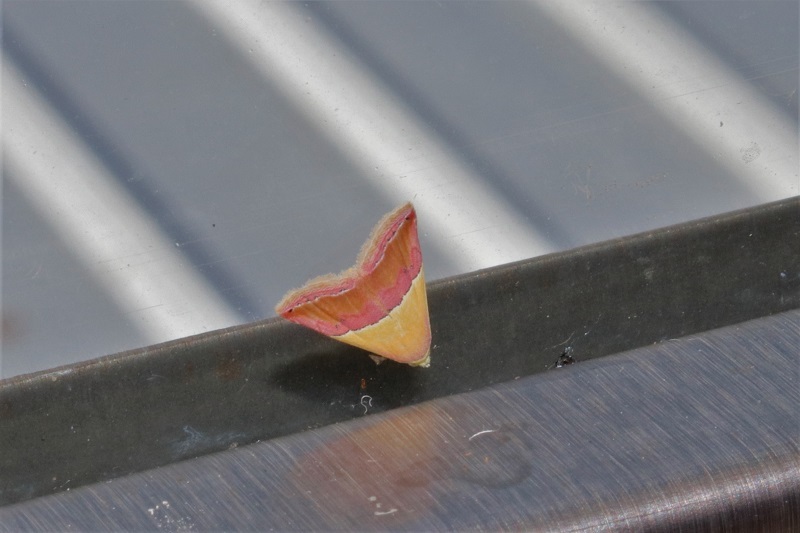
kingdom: Animalia
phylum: Arthropoda
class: Insecta
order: Lepidoptera
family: Noctuidae
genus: Eublemma
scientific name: Eublemma caffrorum
